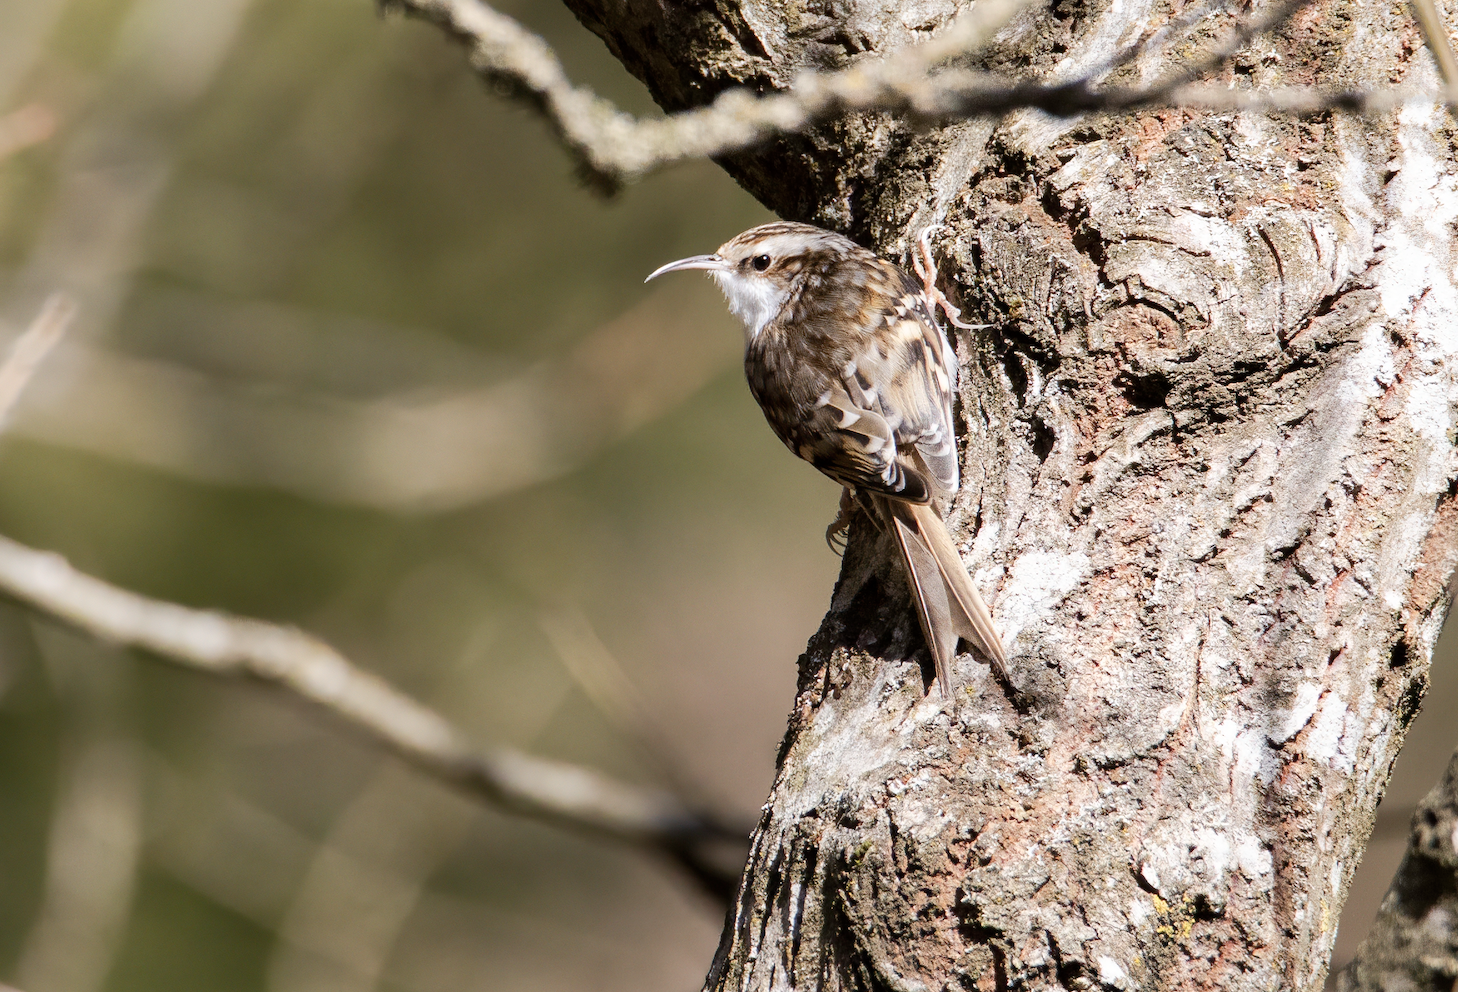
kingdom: Animalia
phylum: Chordata
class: Aves
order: Passeriformes
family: Certhiidae
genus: Certhia
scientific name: Certhia familiaris
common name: Eurasian treecreeper
